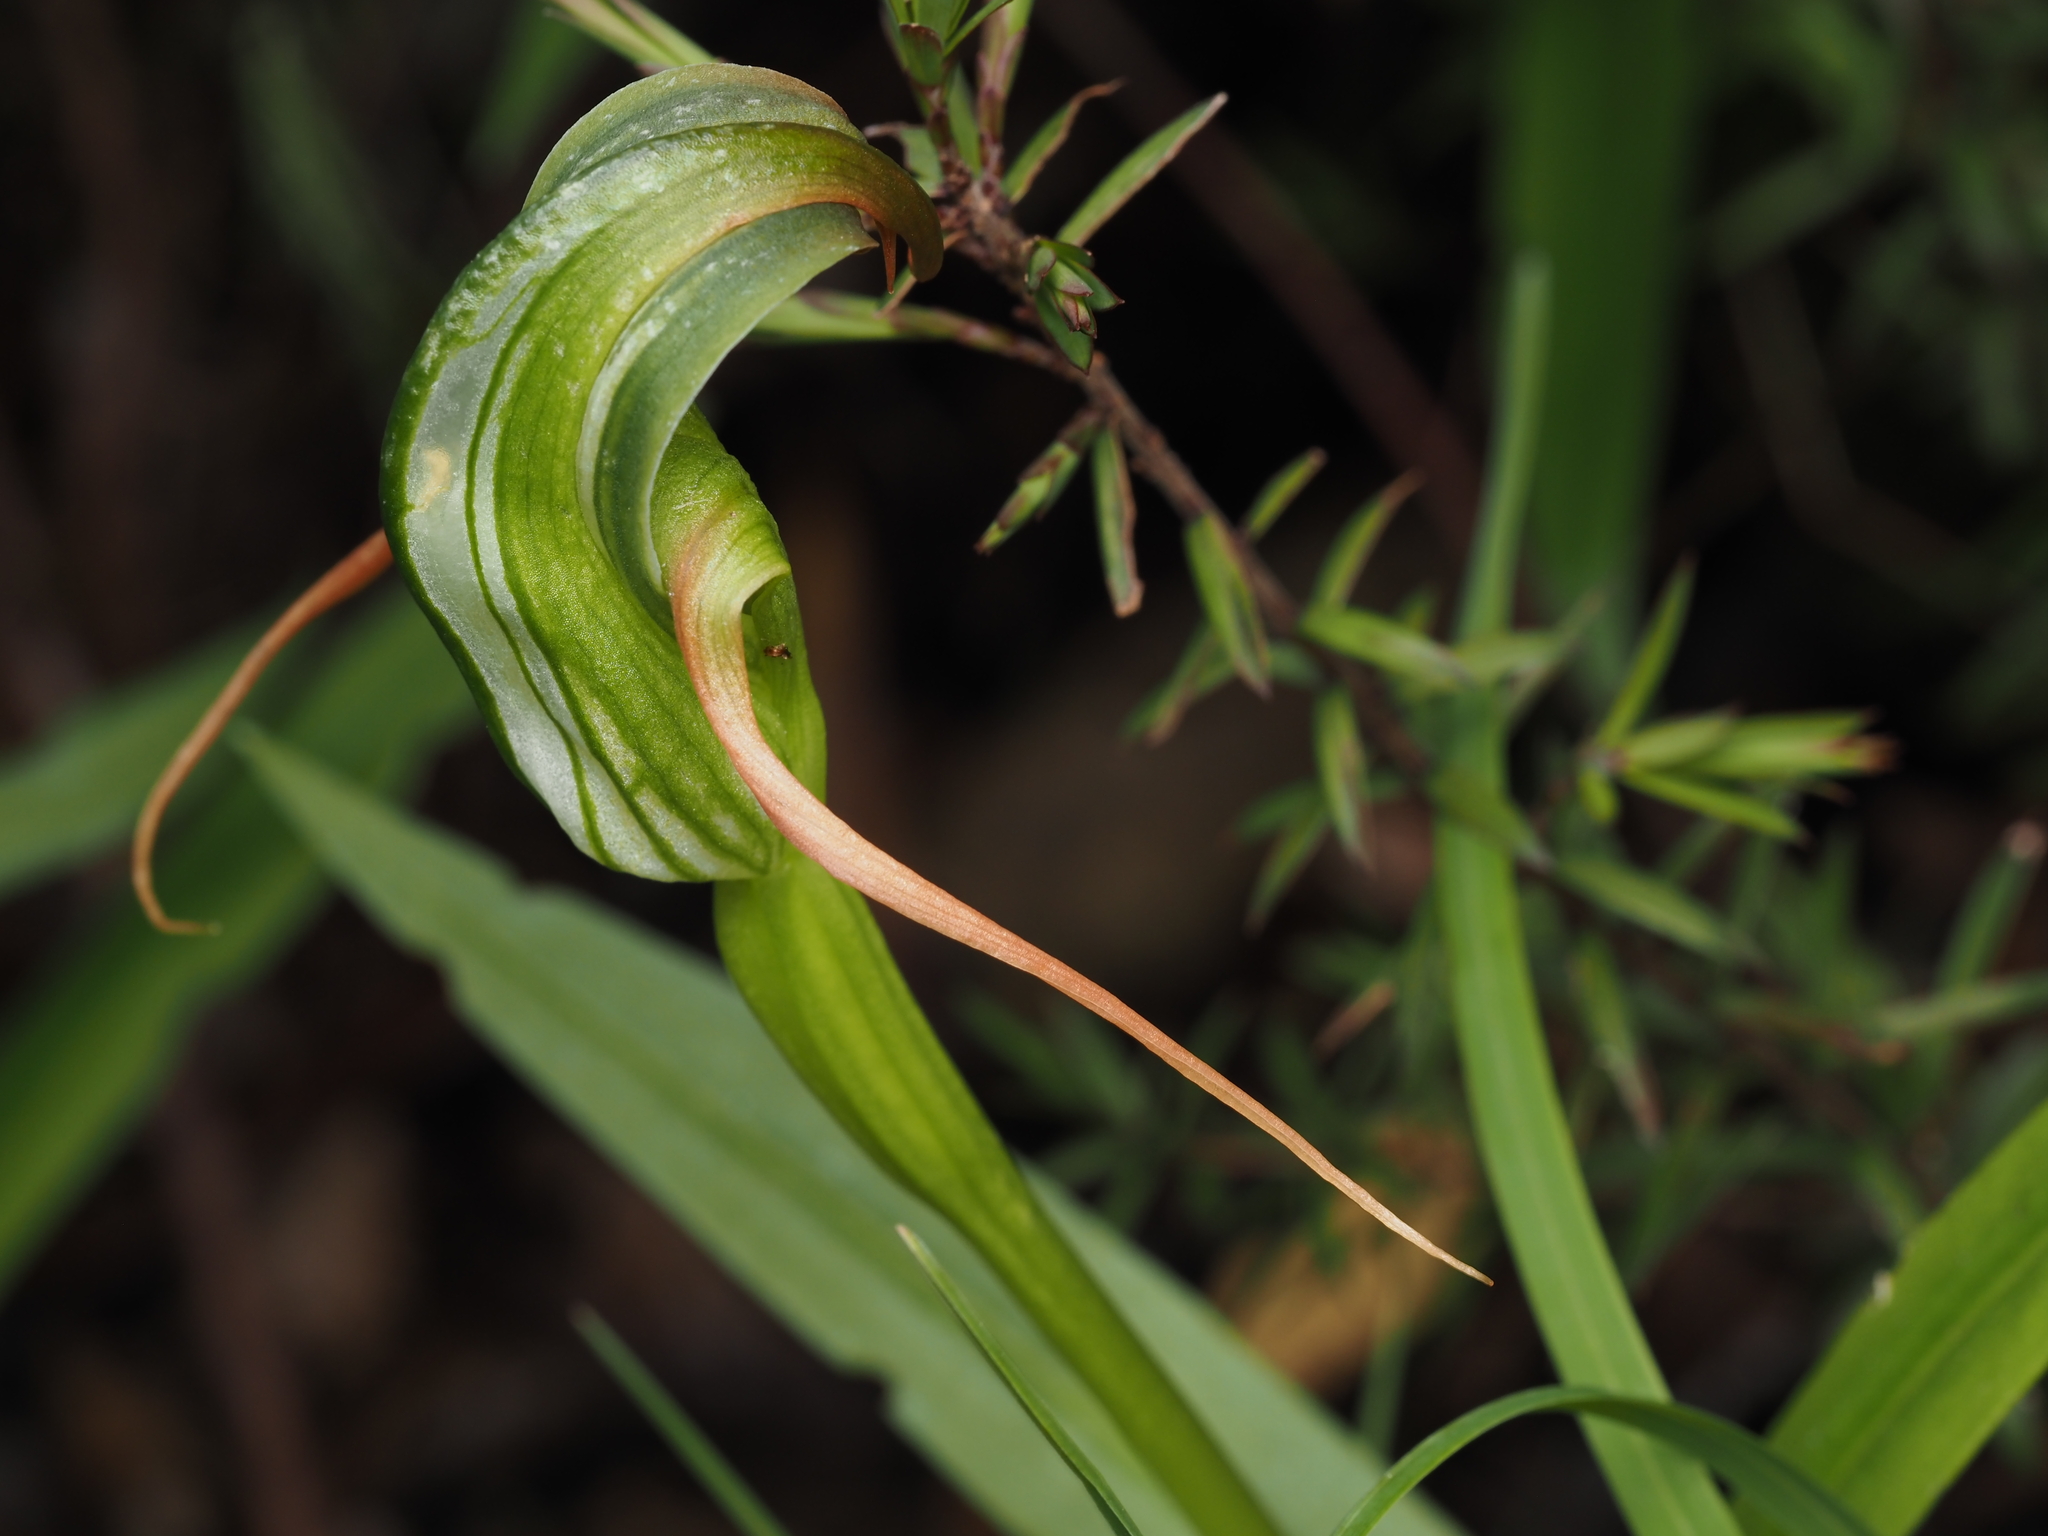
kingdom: Plantae
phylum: Tracheophyta
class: Liliopsida
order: Asparagales
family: Orchidaceae
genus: Pterostylis
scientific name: Pterostylis patens
